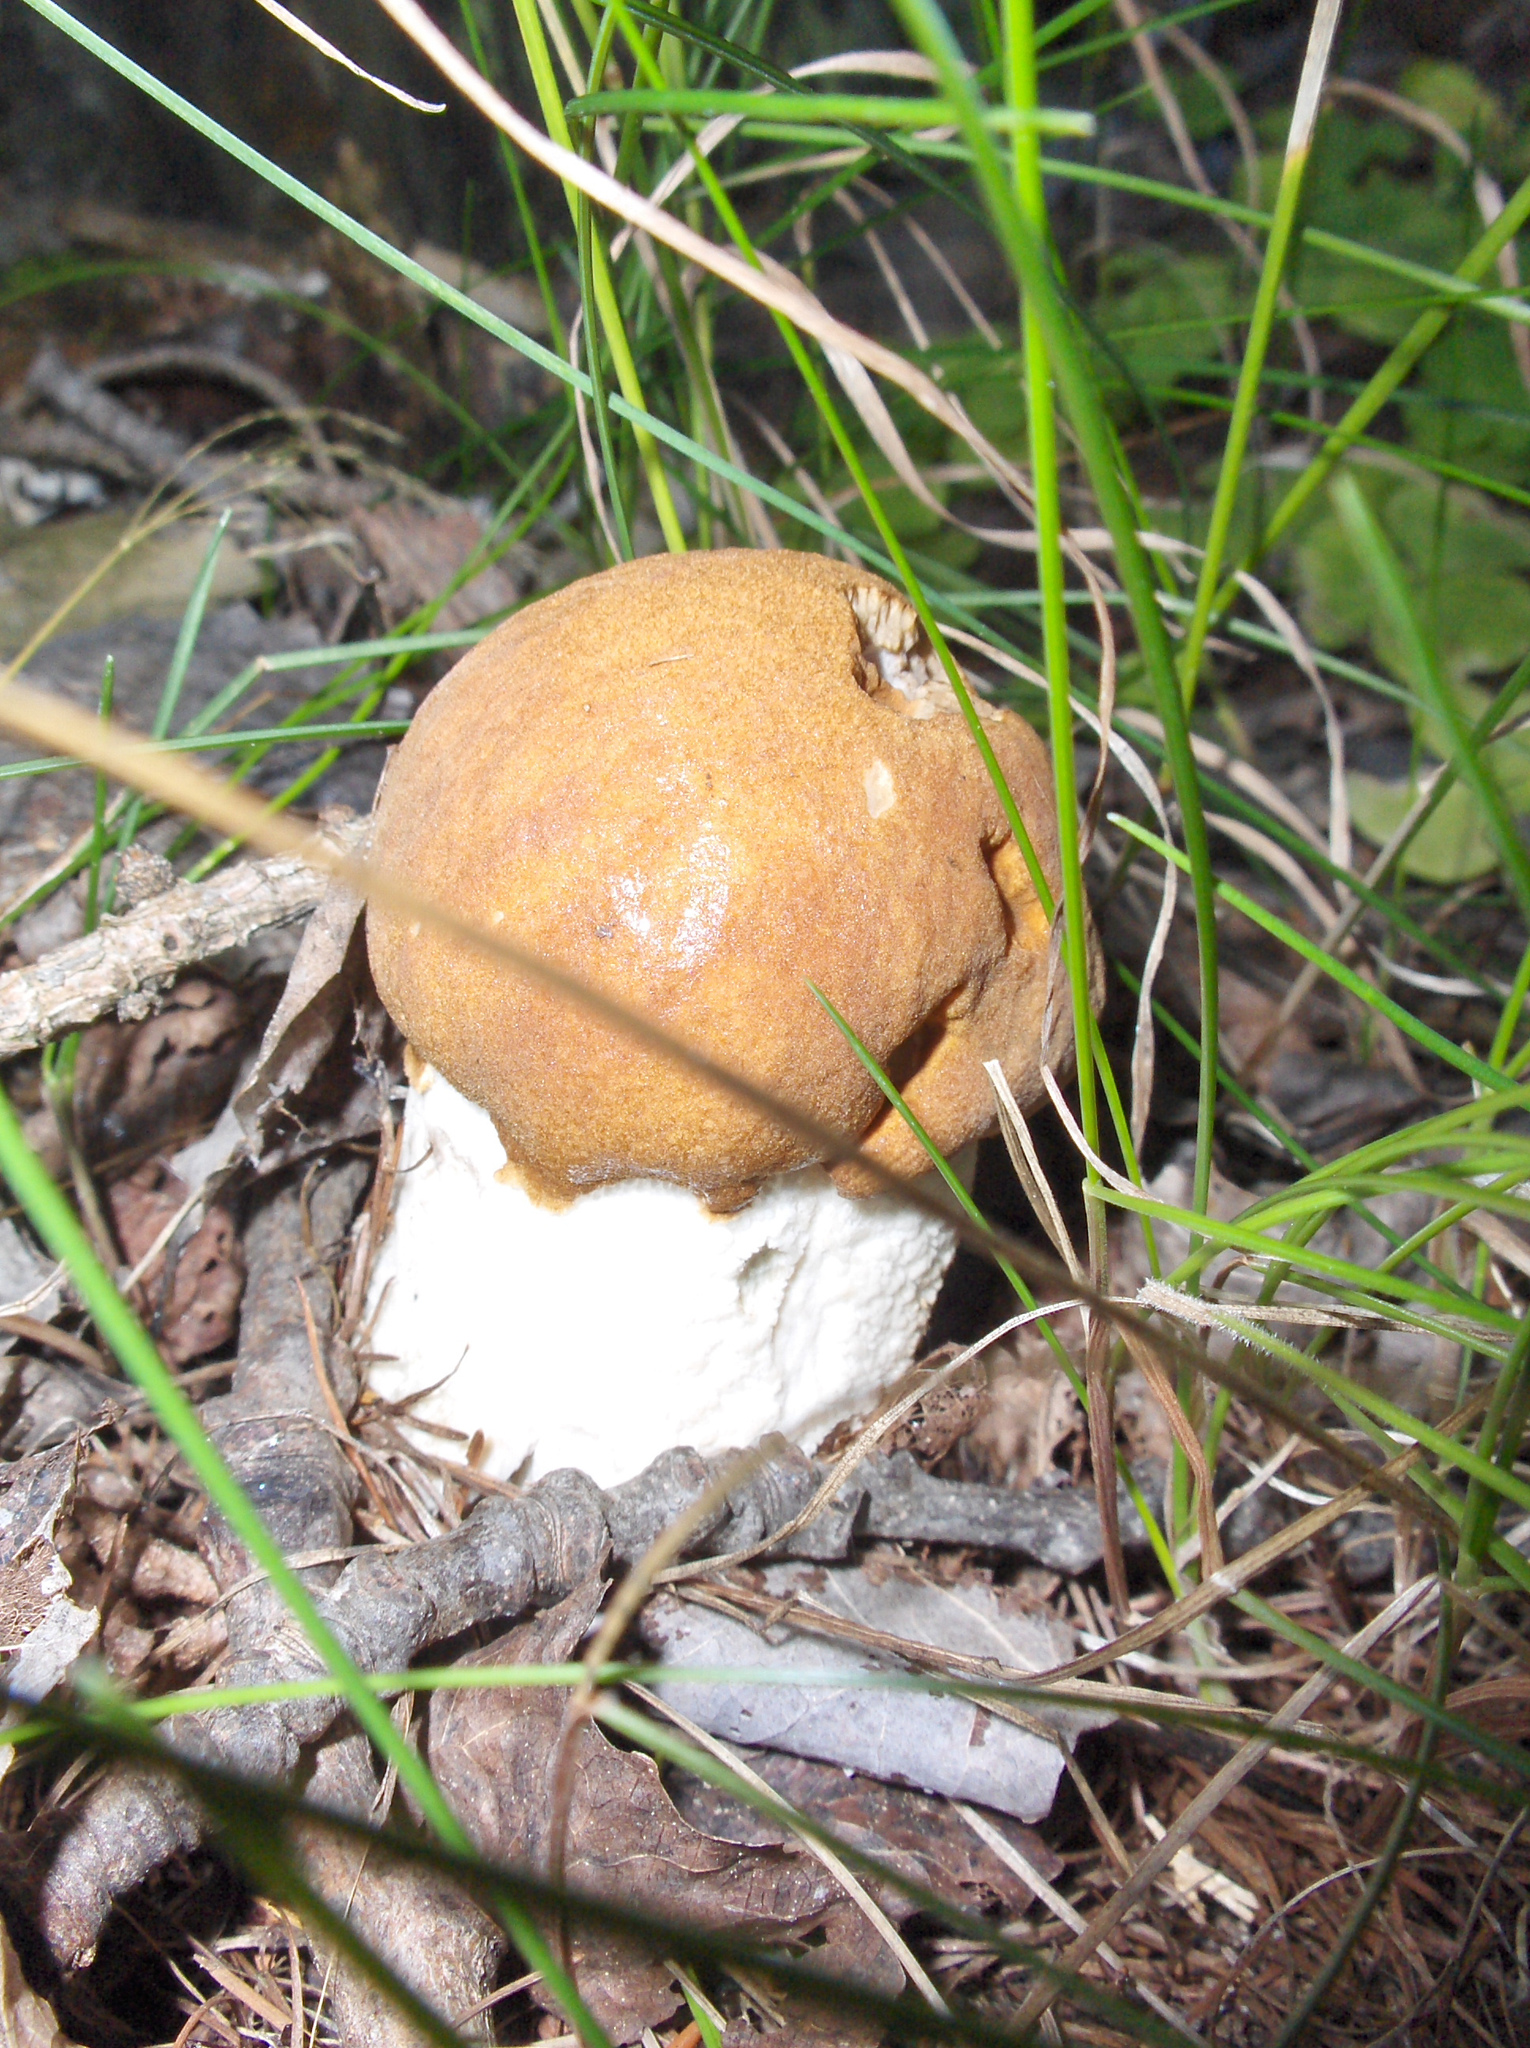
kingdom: Fungi
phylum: Basidiomycota
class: Agaricomycetes
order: Boletales
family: Boletaceae
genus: Leccinum
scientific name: Leccinum albostipitatum
